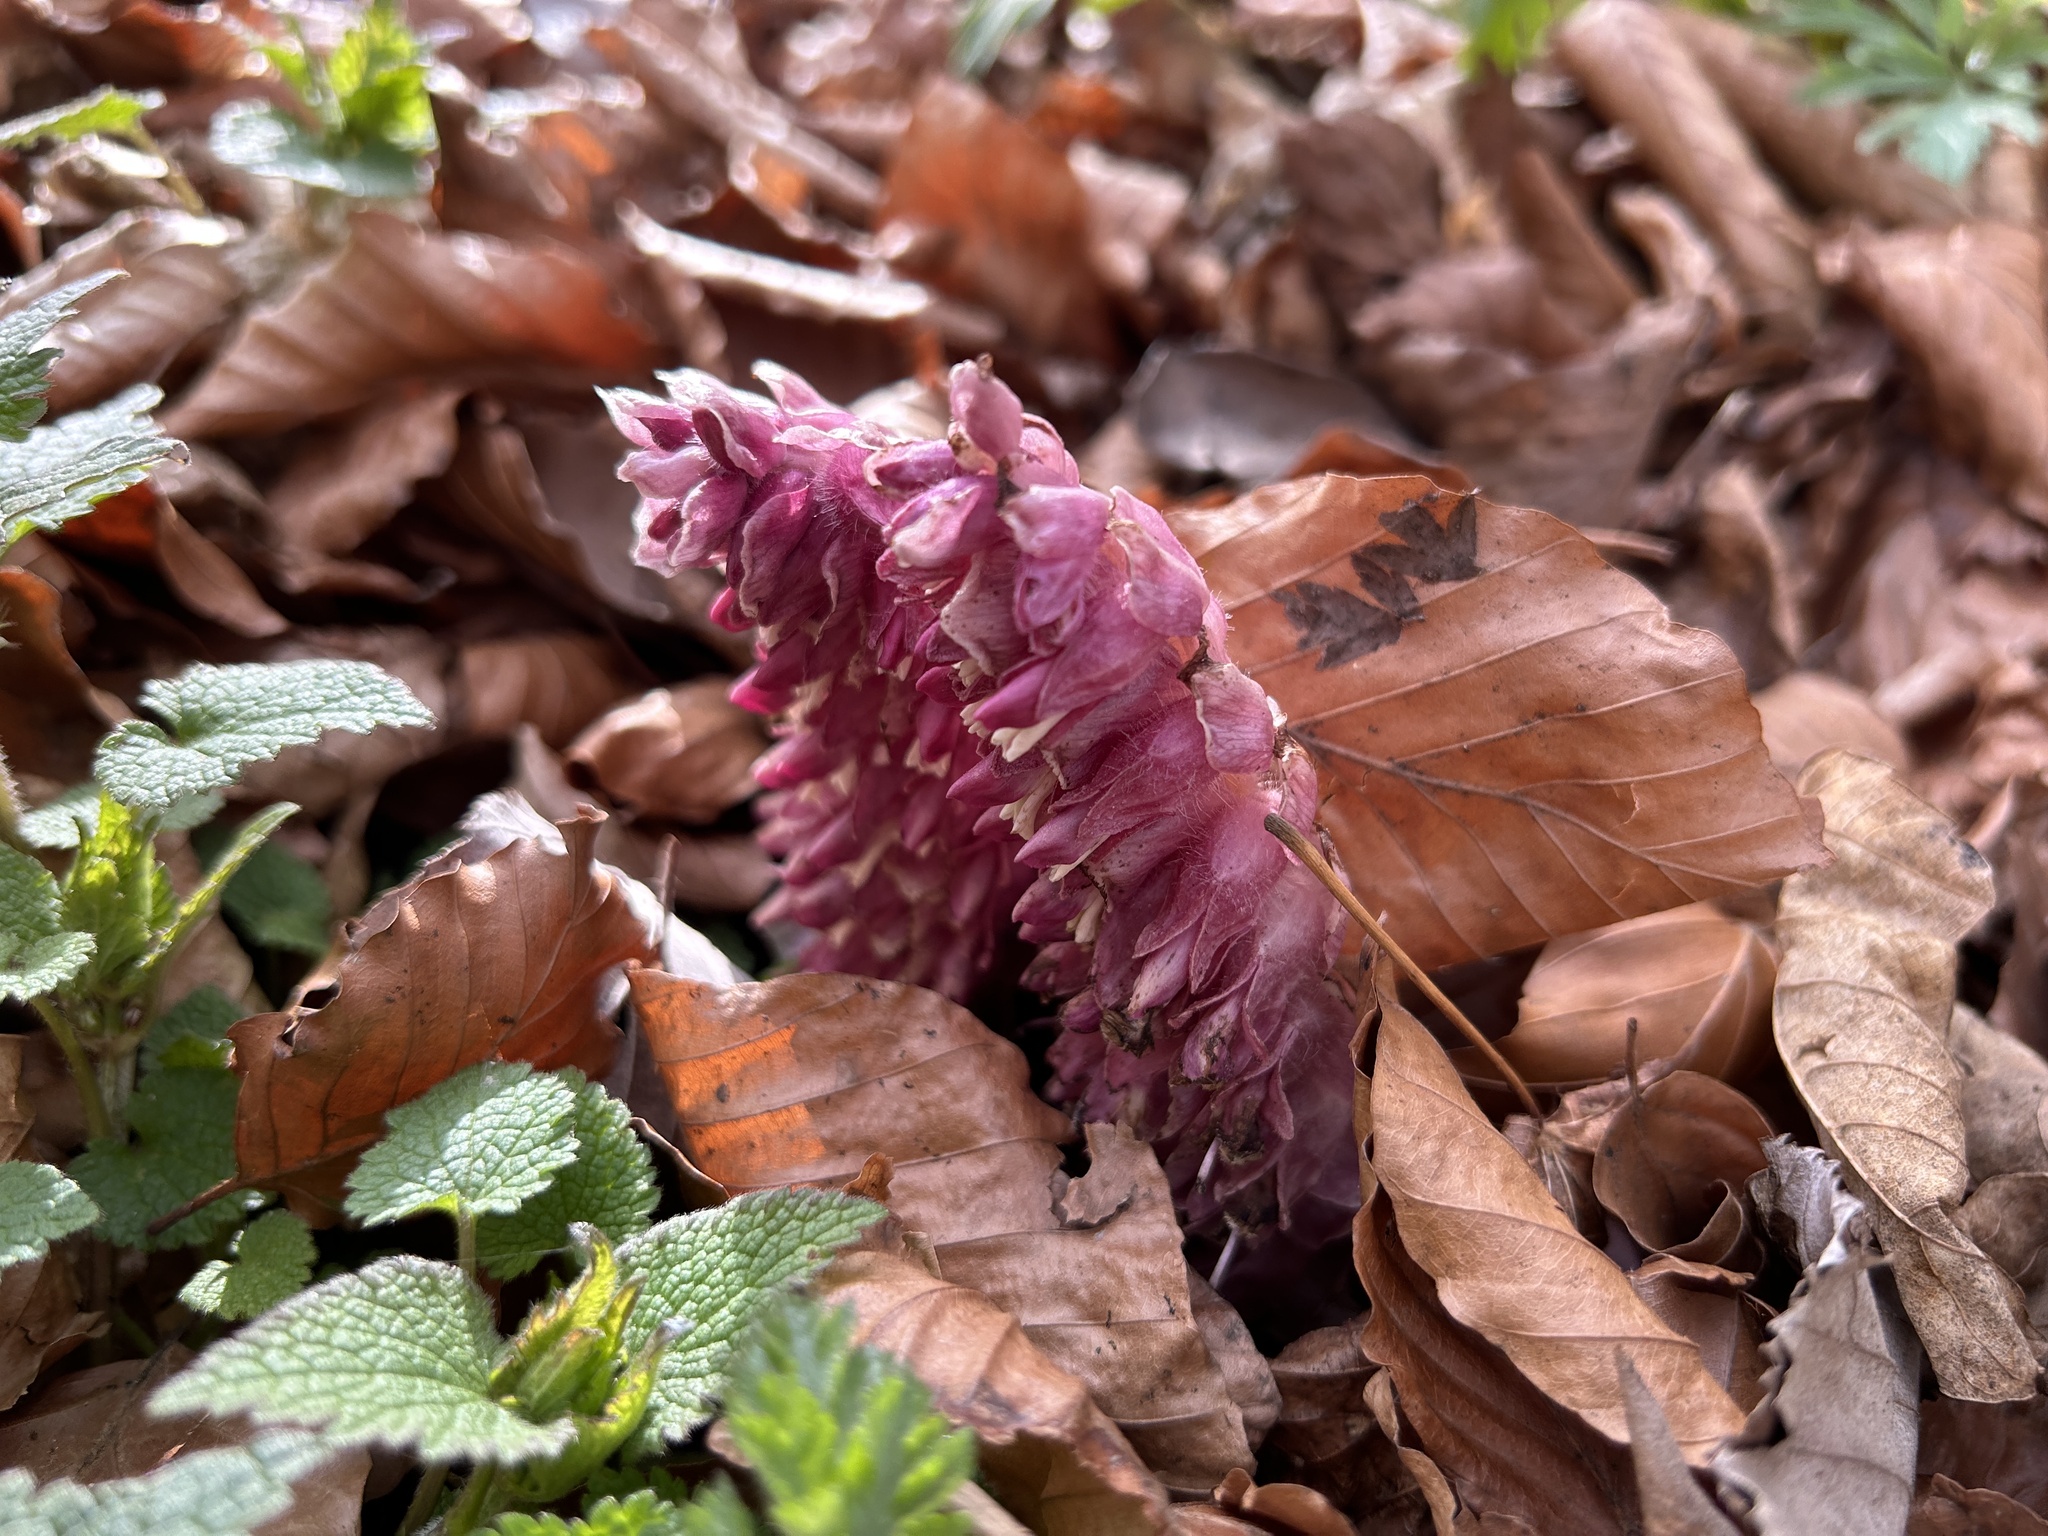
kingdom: Plantae
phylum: Tracheophyta
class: Magnoliopsida
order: Lamiales
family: Orobanchaceae
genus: Lathraea
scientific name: Lathraea squamaria
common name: Toothwort
